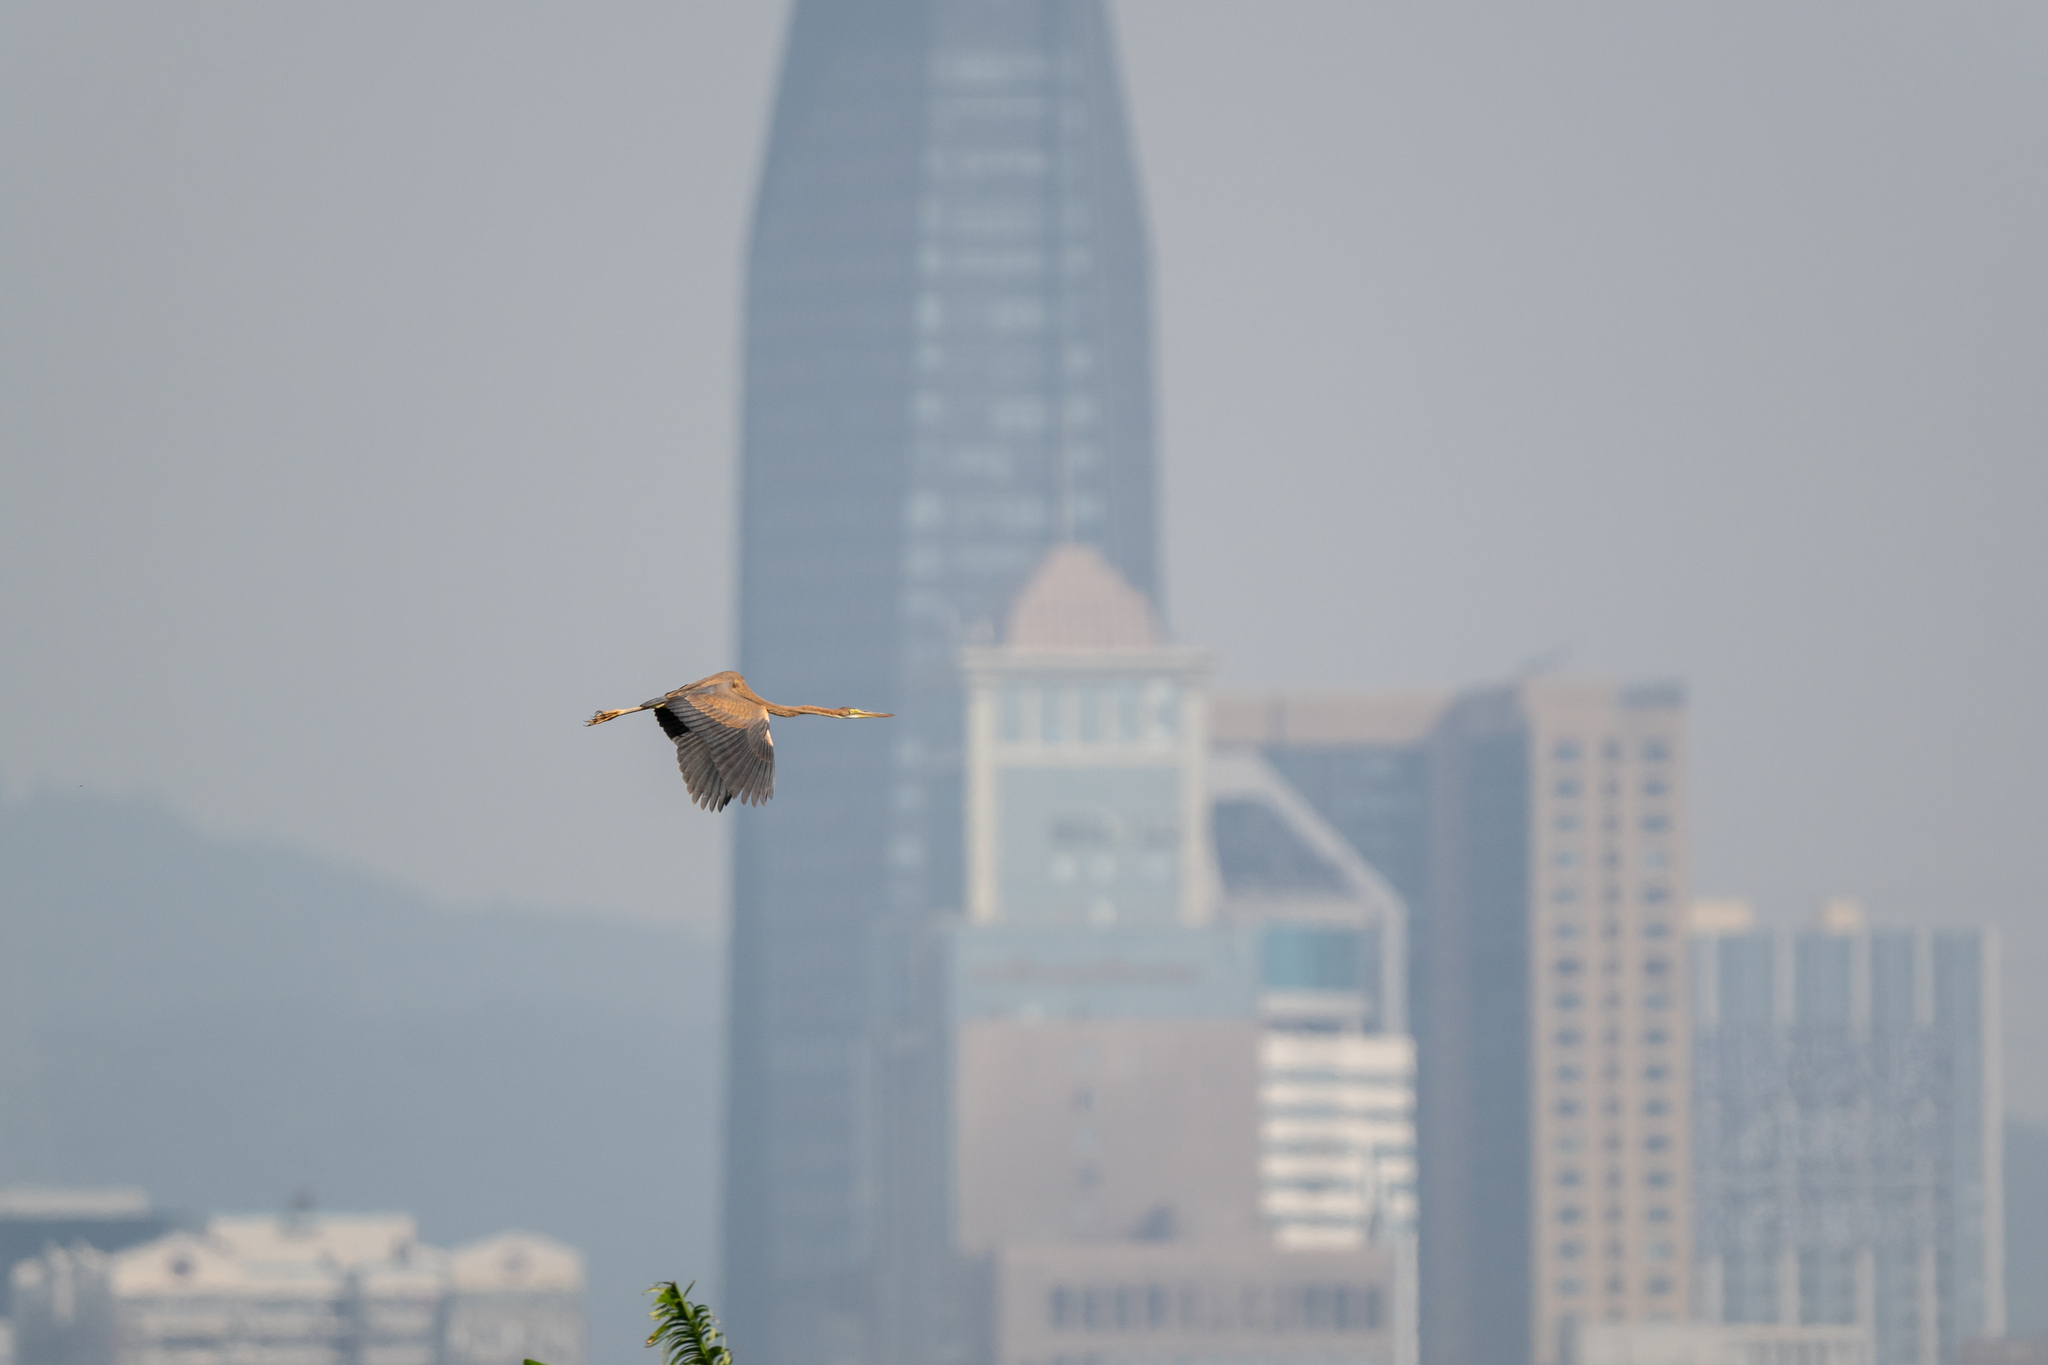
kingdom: Animalia
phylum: Chordata
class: Aves
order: Pelecaniformes
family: Ardeidae
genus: Ardea
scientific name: Ardea purpurea
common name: Purple heron
